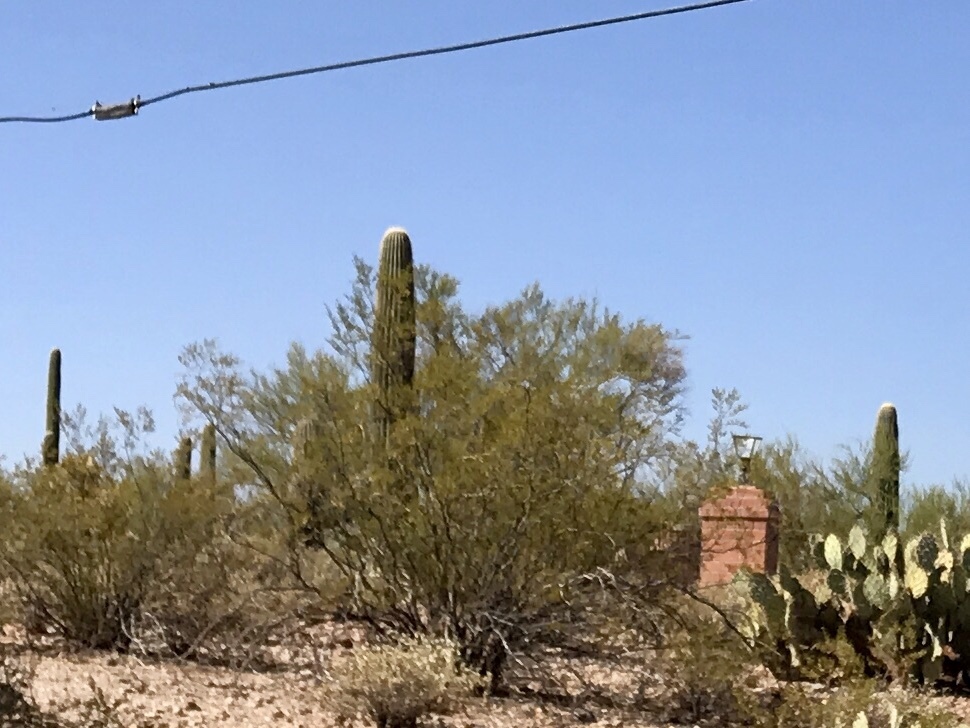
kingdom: Plantae
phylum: Tracheophyta
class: Magnoliopsida
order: Caryophyllales
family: Cactaceae
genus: Carnegiea
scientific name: Carnegiea gigantea
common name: Saguaro
